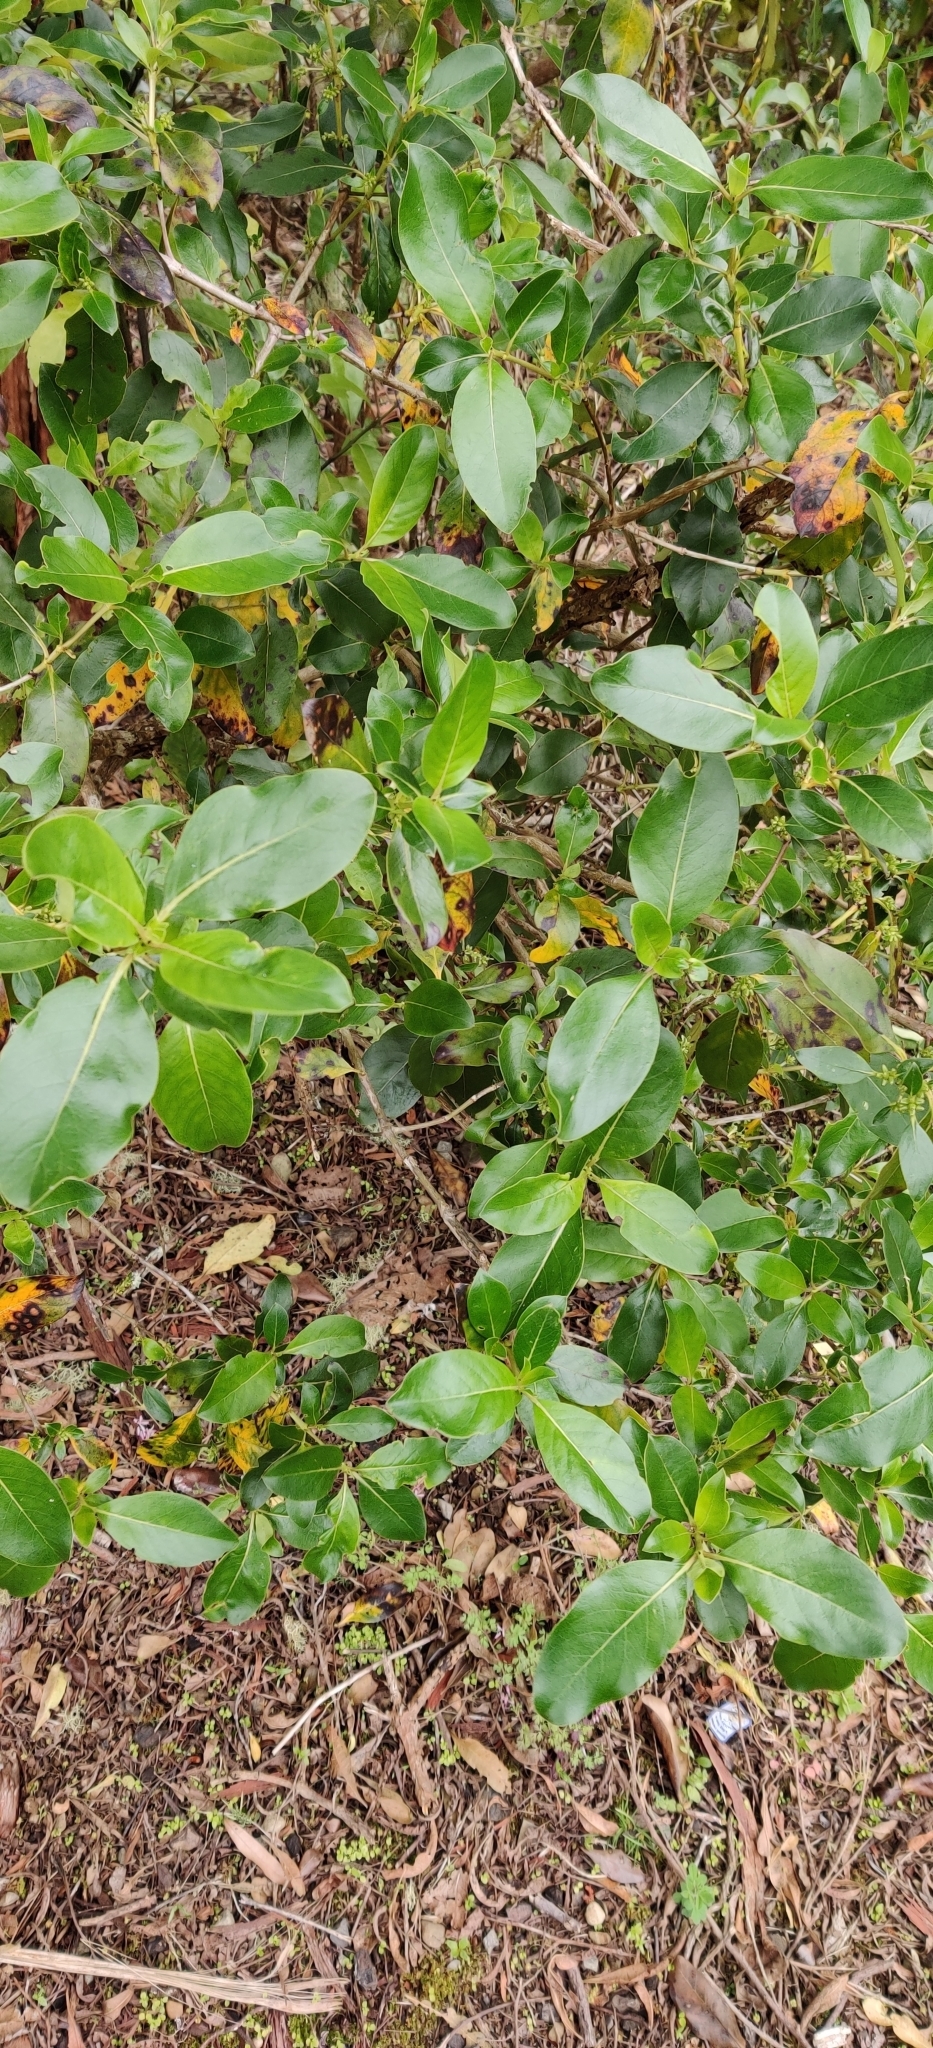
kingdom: Plantae
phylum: Tracheophyta
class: Magnoliopsida
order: Gentianales
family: Rubiaceae
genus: Coprosma
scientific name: Coprosma robusta
